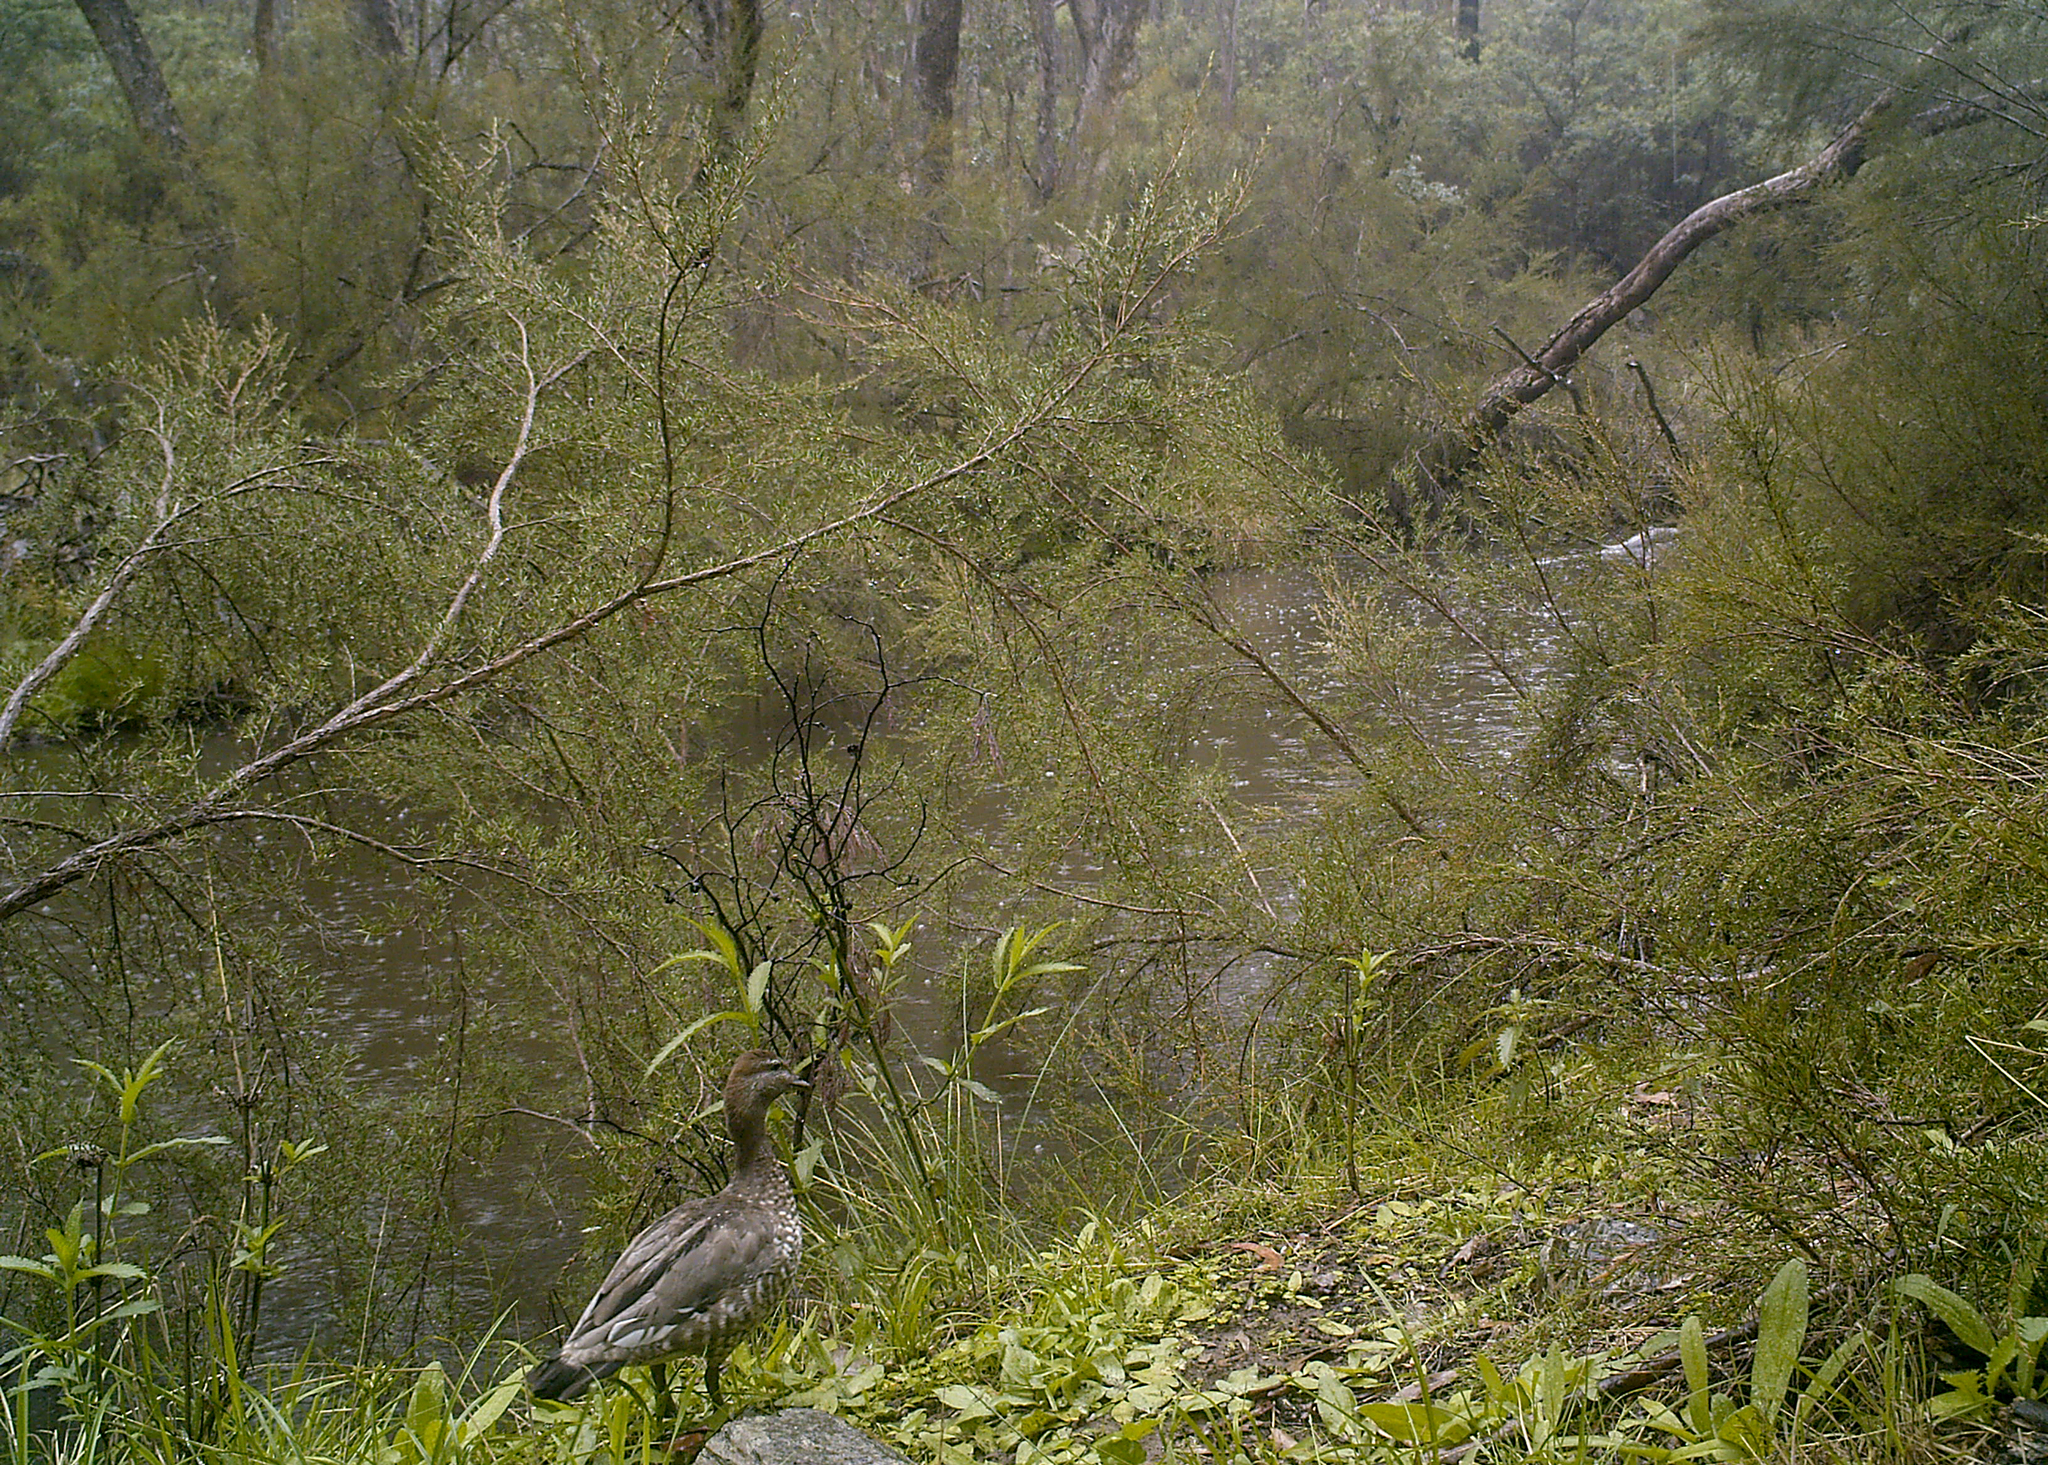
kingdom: Animalia
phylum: Chordata
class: Aves
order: Anseriformes
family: Anatidae
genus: Chenonetta
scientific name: Chenonetta jubata
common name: Maned duck
